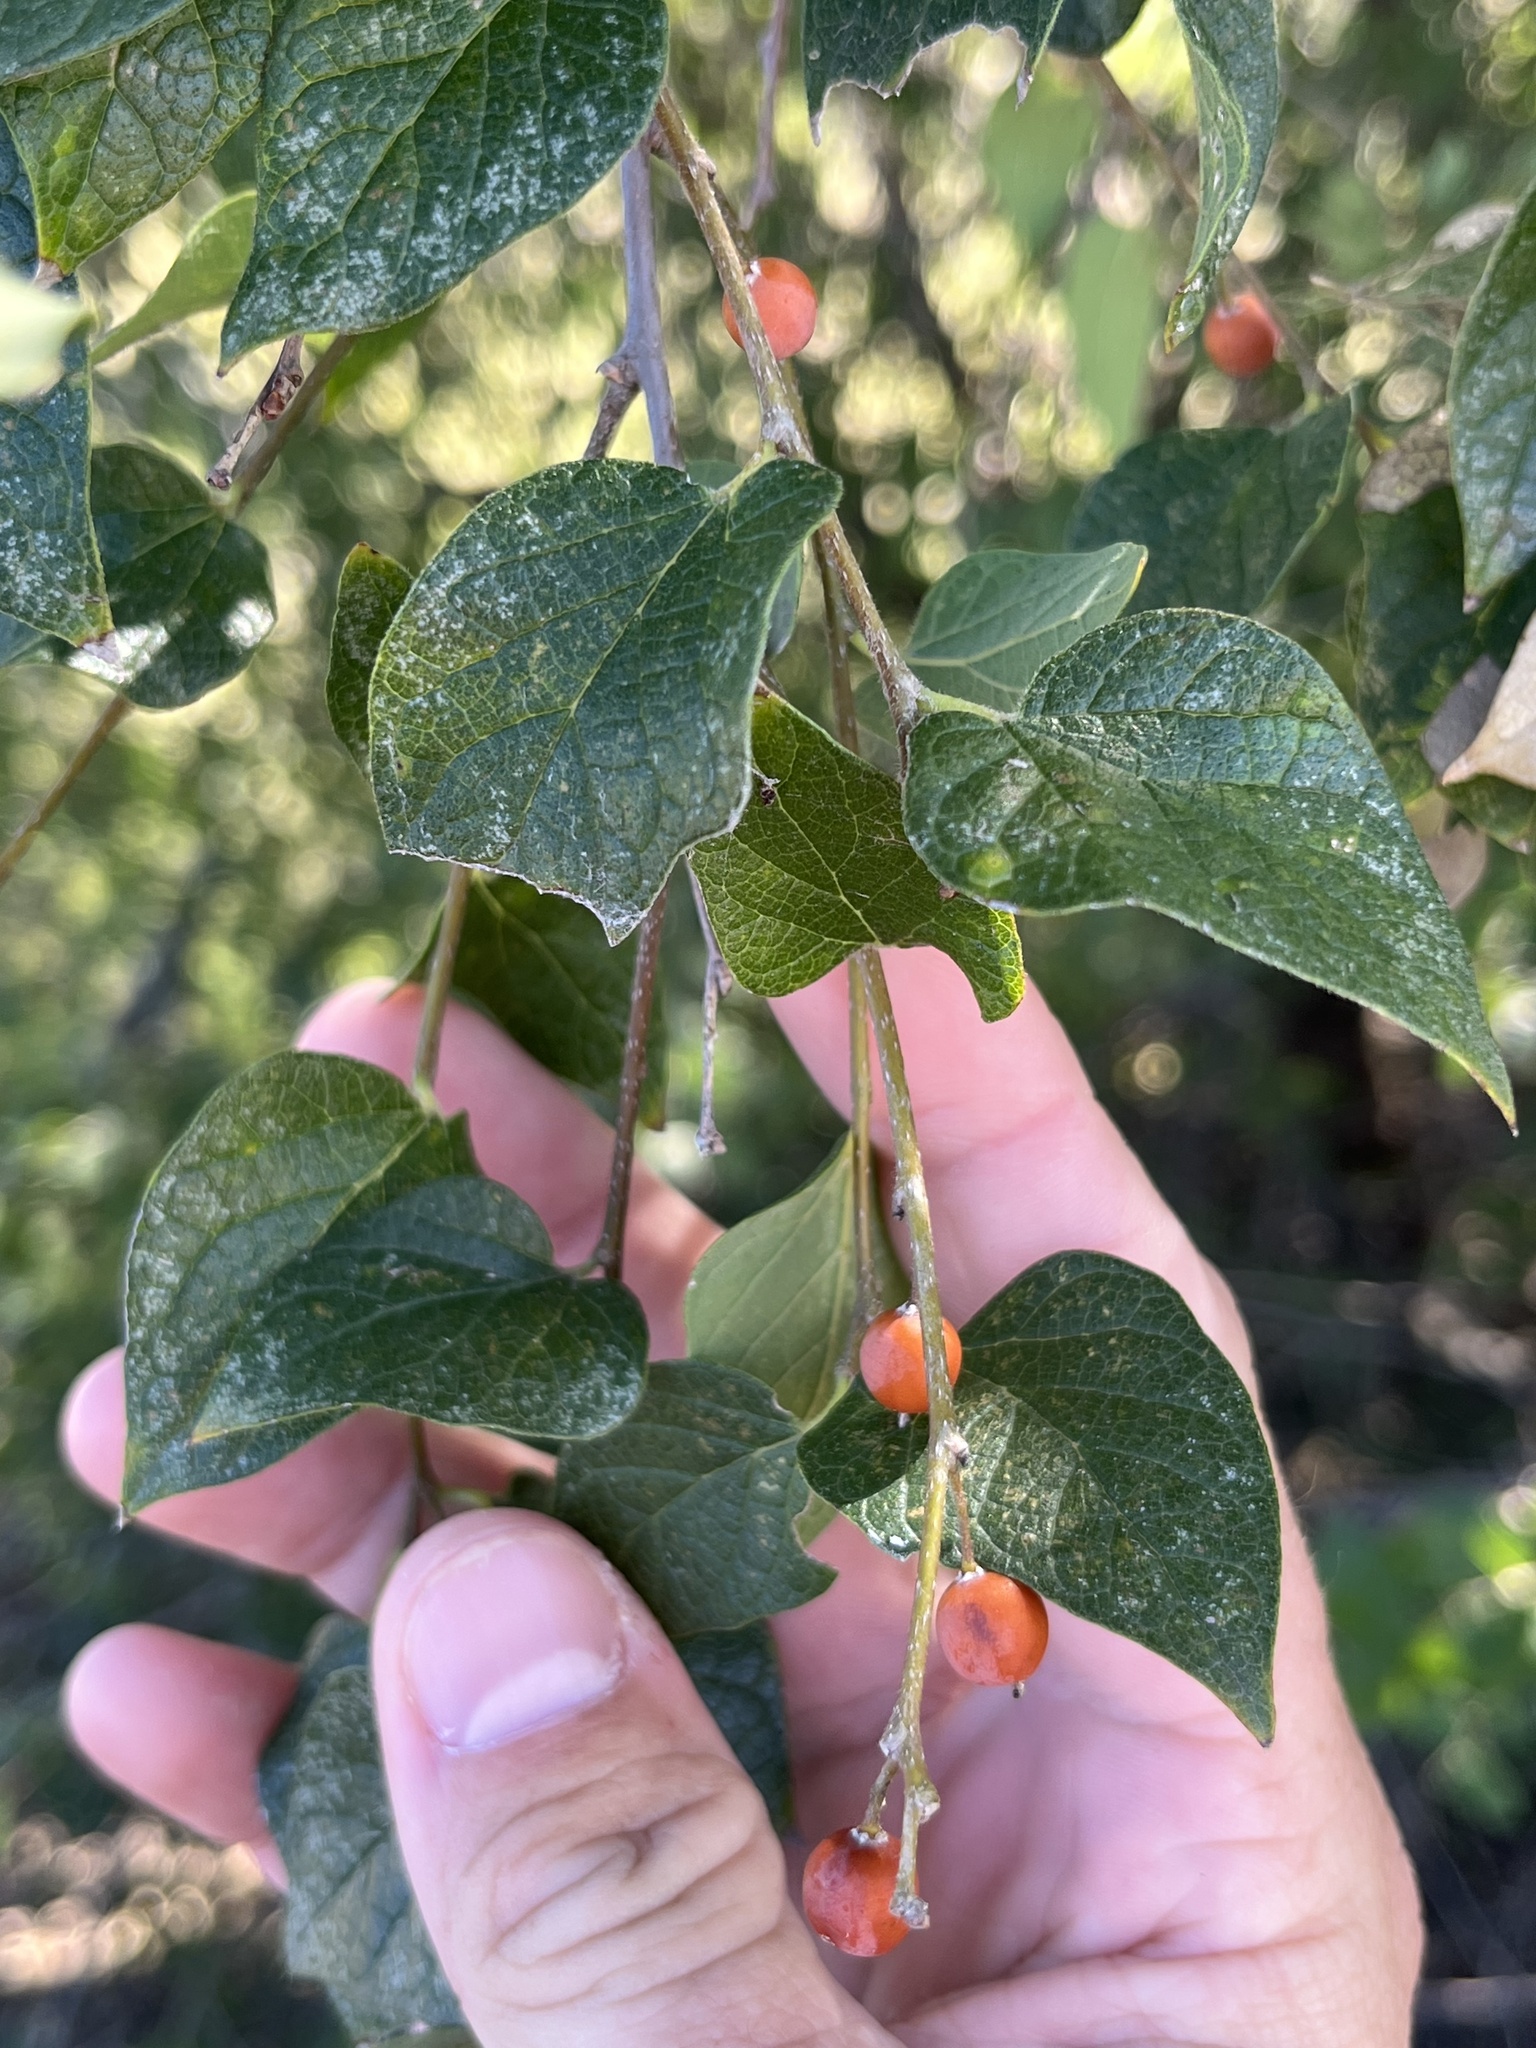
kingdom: Plantae
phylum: Tracheophyta
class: Magnoliopsida
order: Rosales
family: Cannabaceae
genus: Celtis
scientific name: Celtis reticulata
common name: Netleaf hackberry
